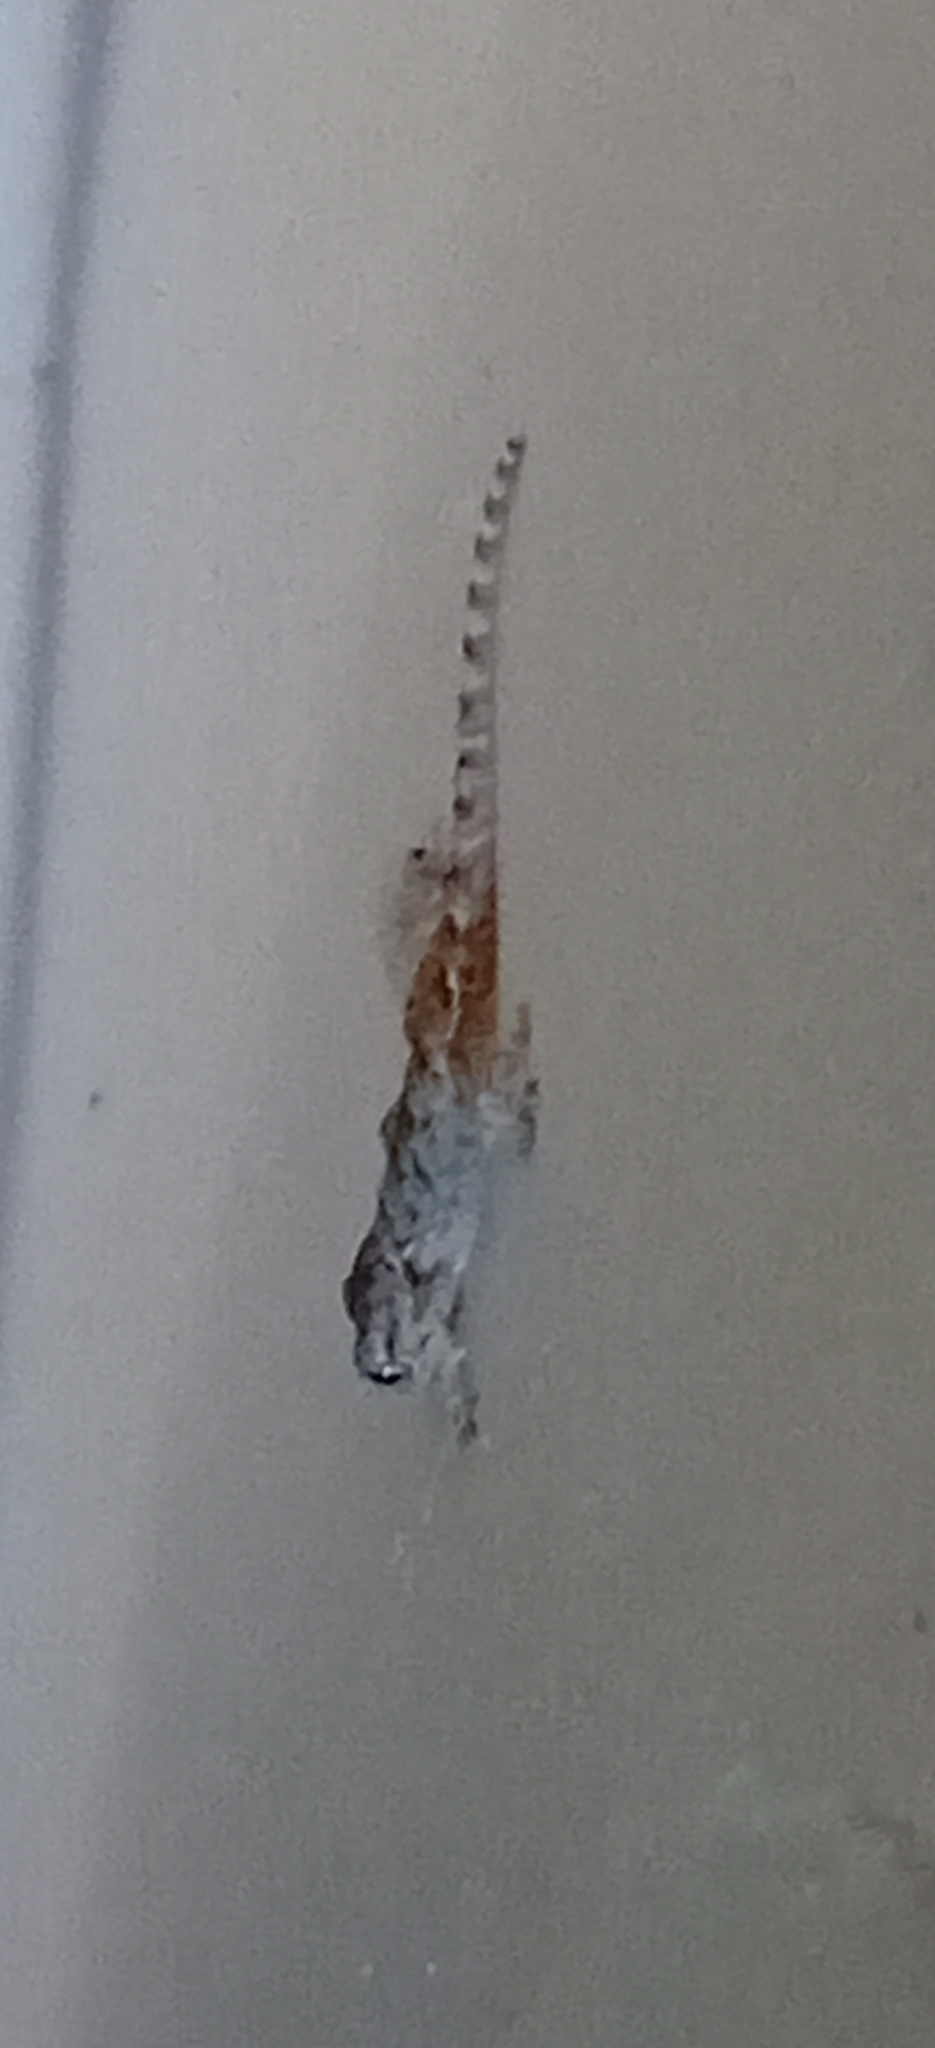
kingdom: Animalia
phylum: Chordata
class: Squamata
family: Phyllodactylidae
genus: Tarentola
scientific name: Tarentola mauritanica
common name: Moorish gecko
